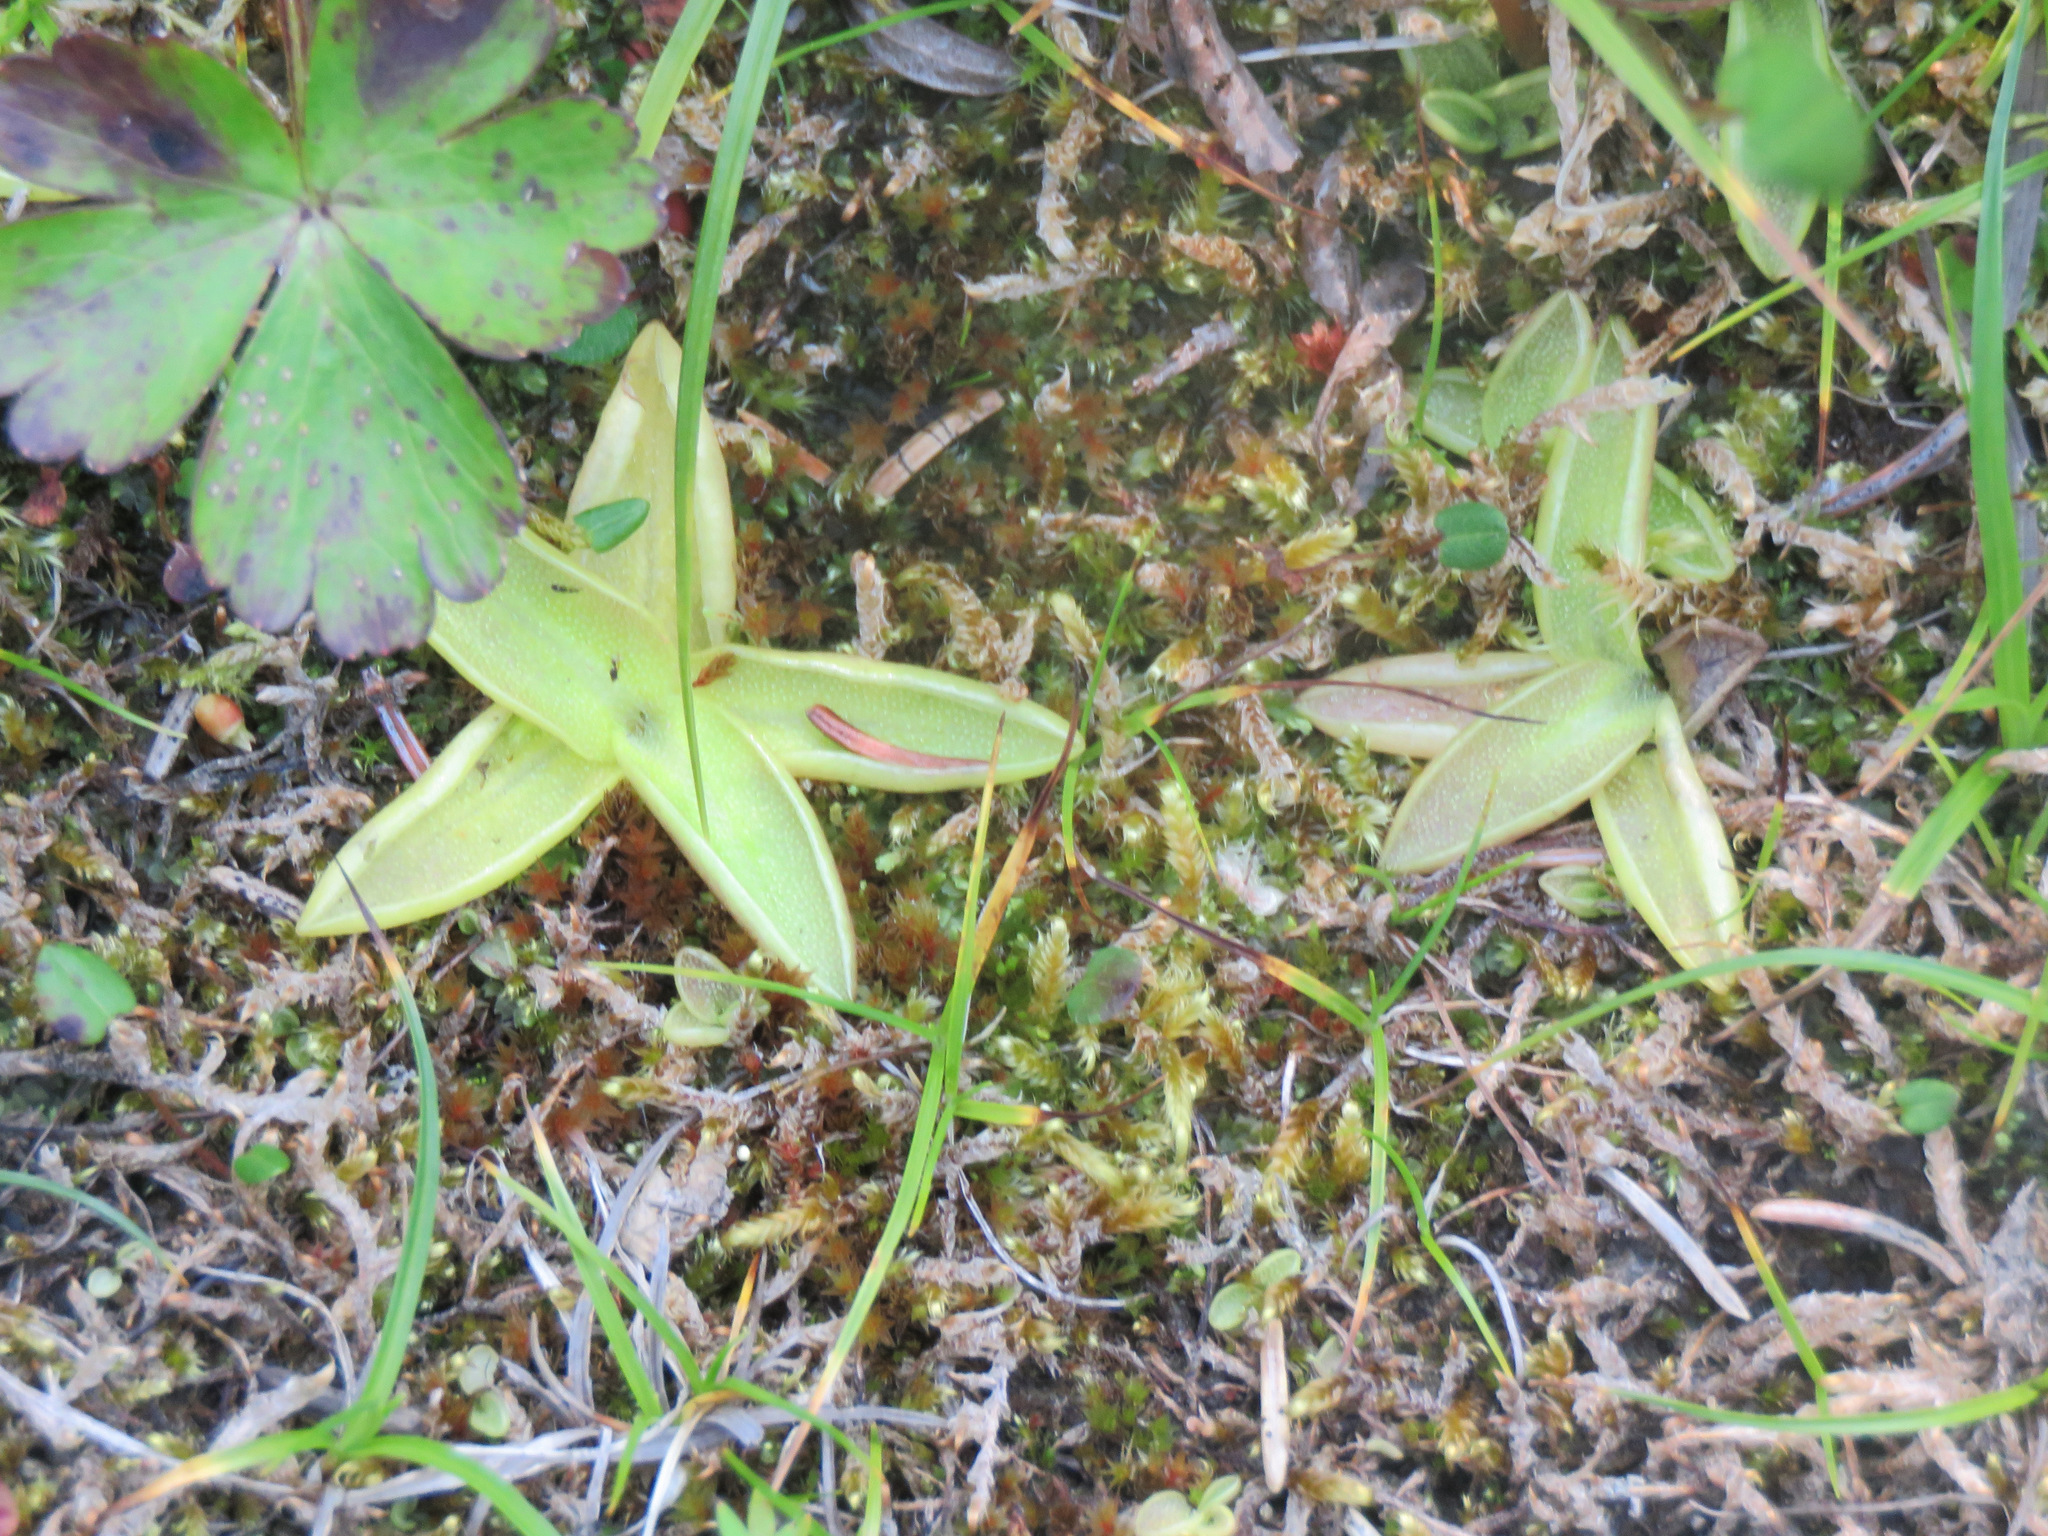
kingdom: Plantae
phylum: Tracheophyta
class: Magnoliopsida
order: Lamiales
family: Lentibulariaceae
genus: Pinguicula
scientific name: Pinguicula vulgaris
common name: Common butterwort
